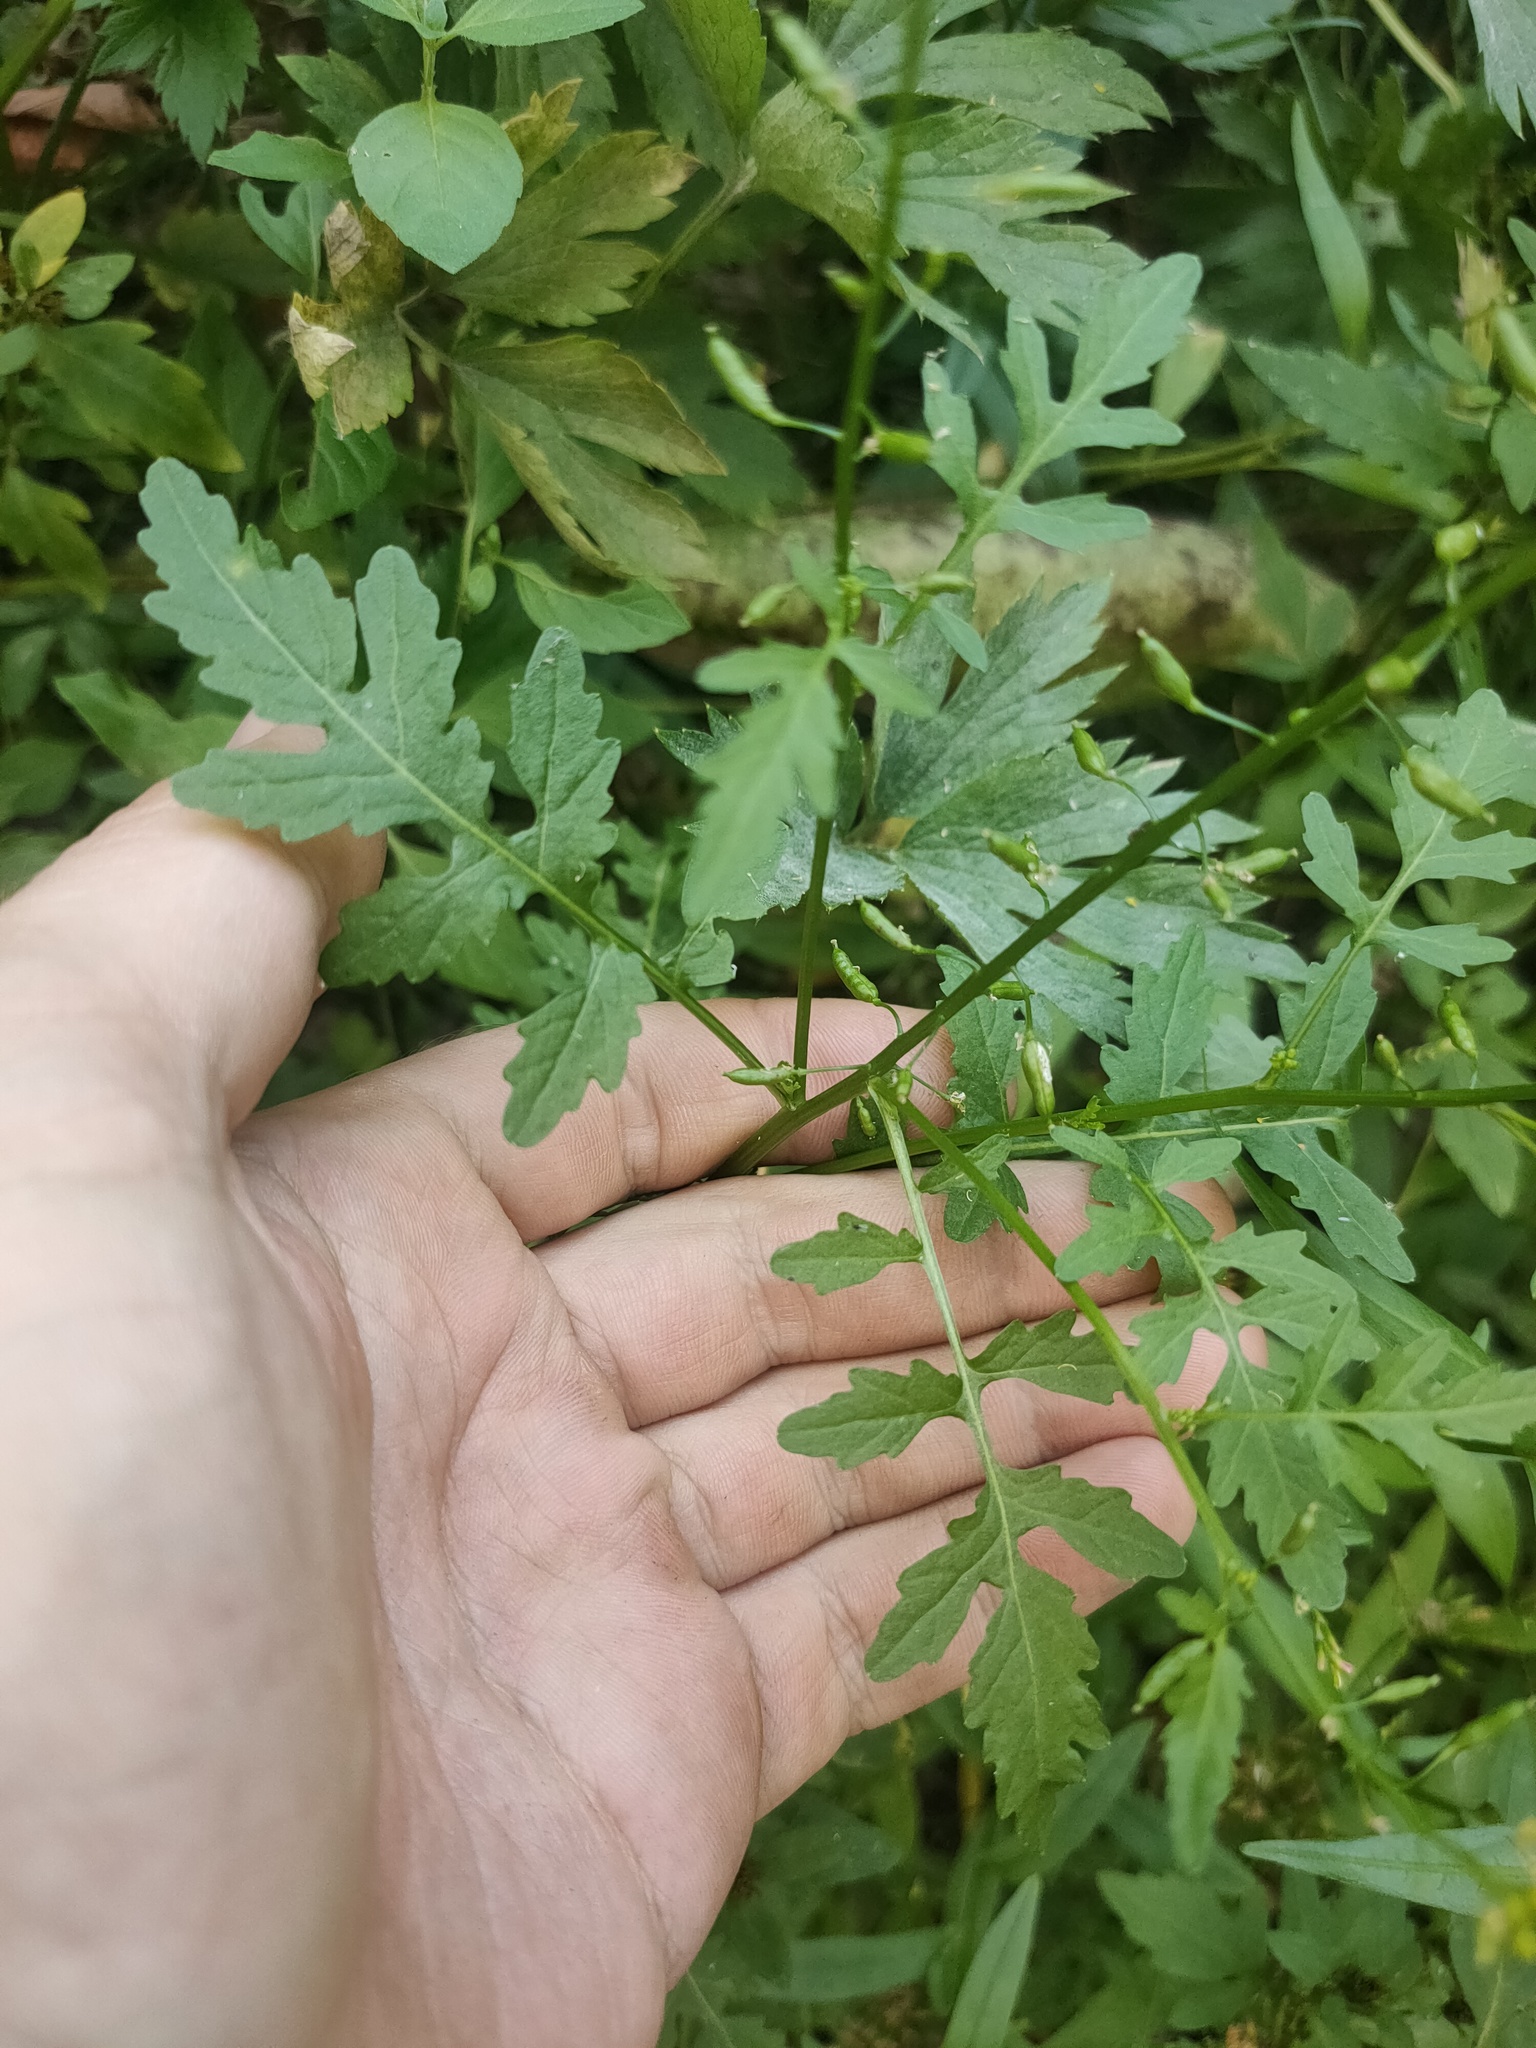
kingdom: Plantae
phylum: Tracheophyta
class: Magnoliopsida
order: Brassicales
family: Brassicaceae
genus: Rorippa
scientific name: Rorippa palustris
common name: Marsh yellow-cress
